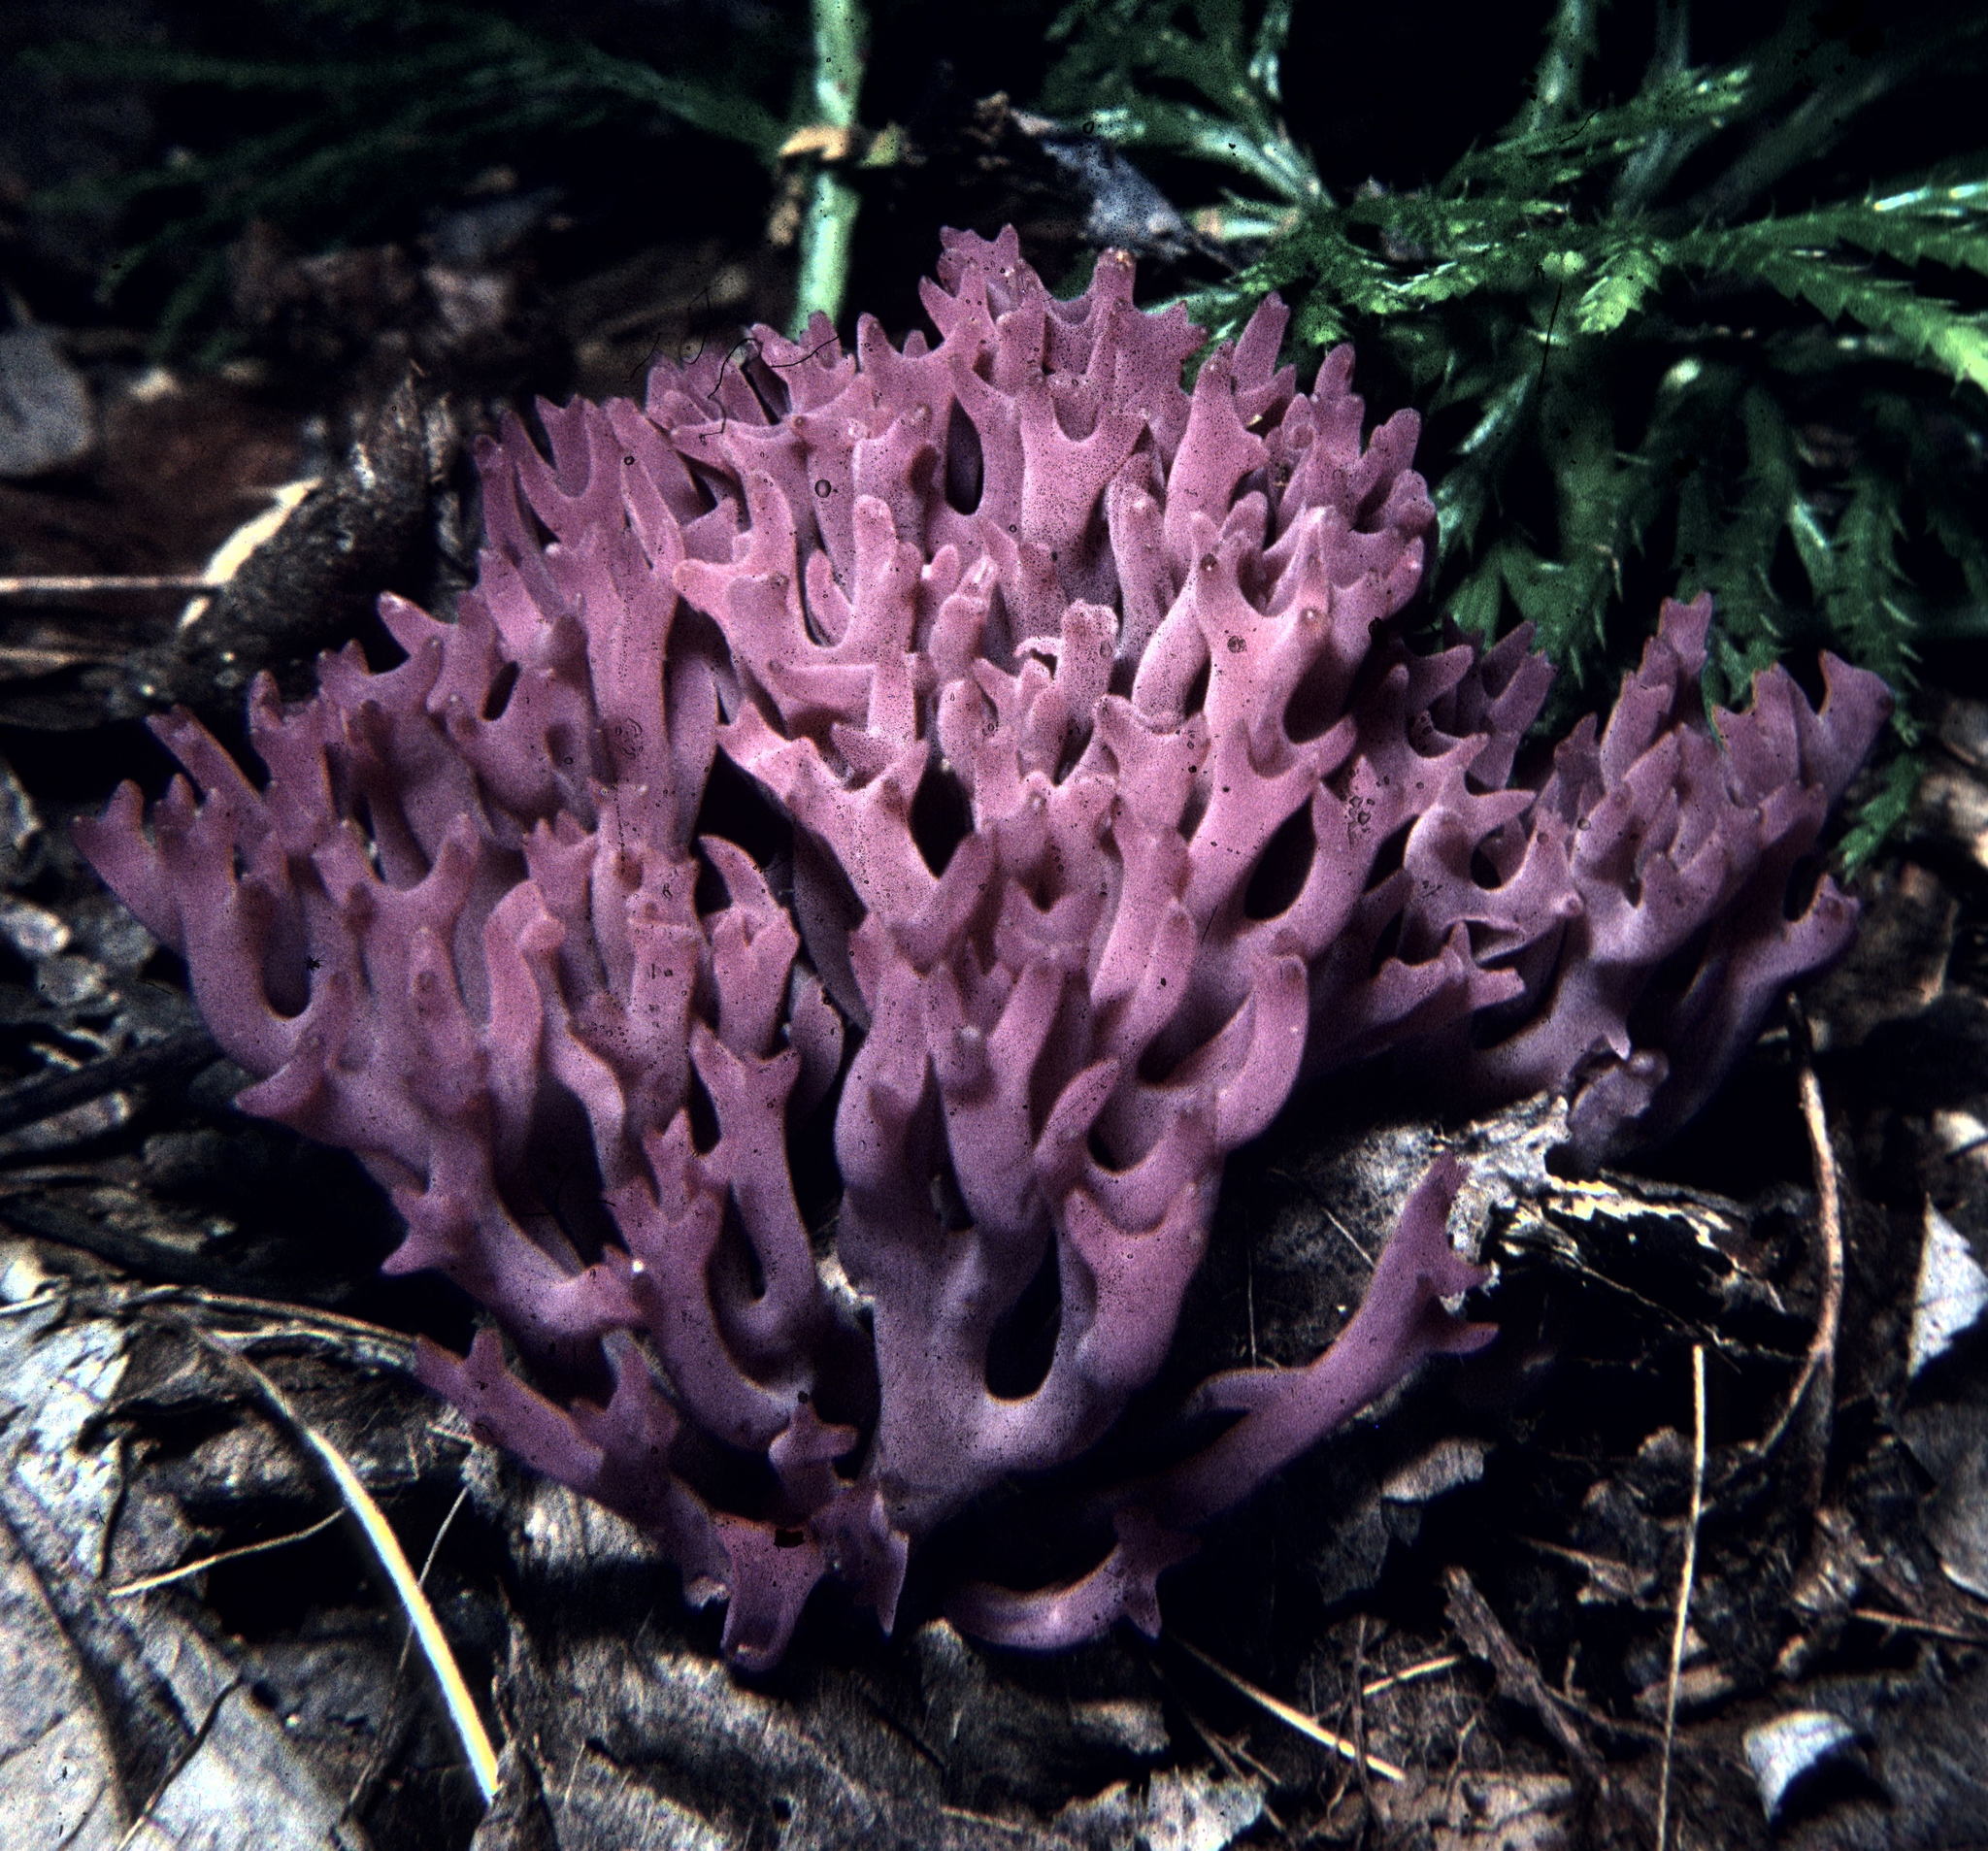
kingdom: Fungi
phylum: Basidiomycota
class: Agaricomycetes
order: Agaricales
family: Clavariaceae
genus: Clavaria
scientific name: Clavaria zollingeri
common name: Violet coral
